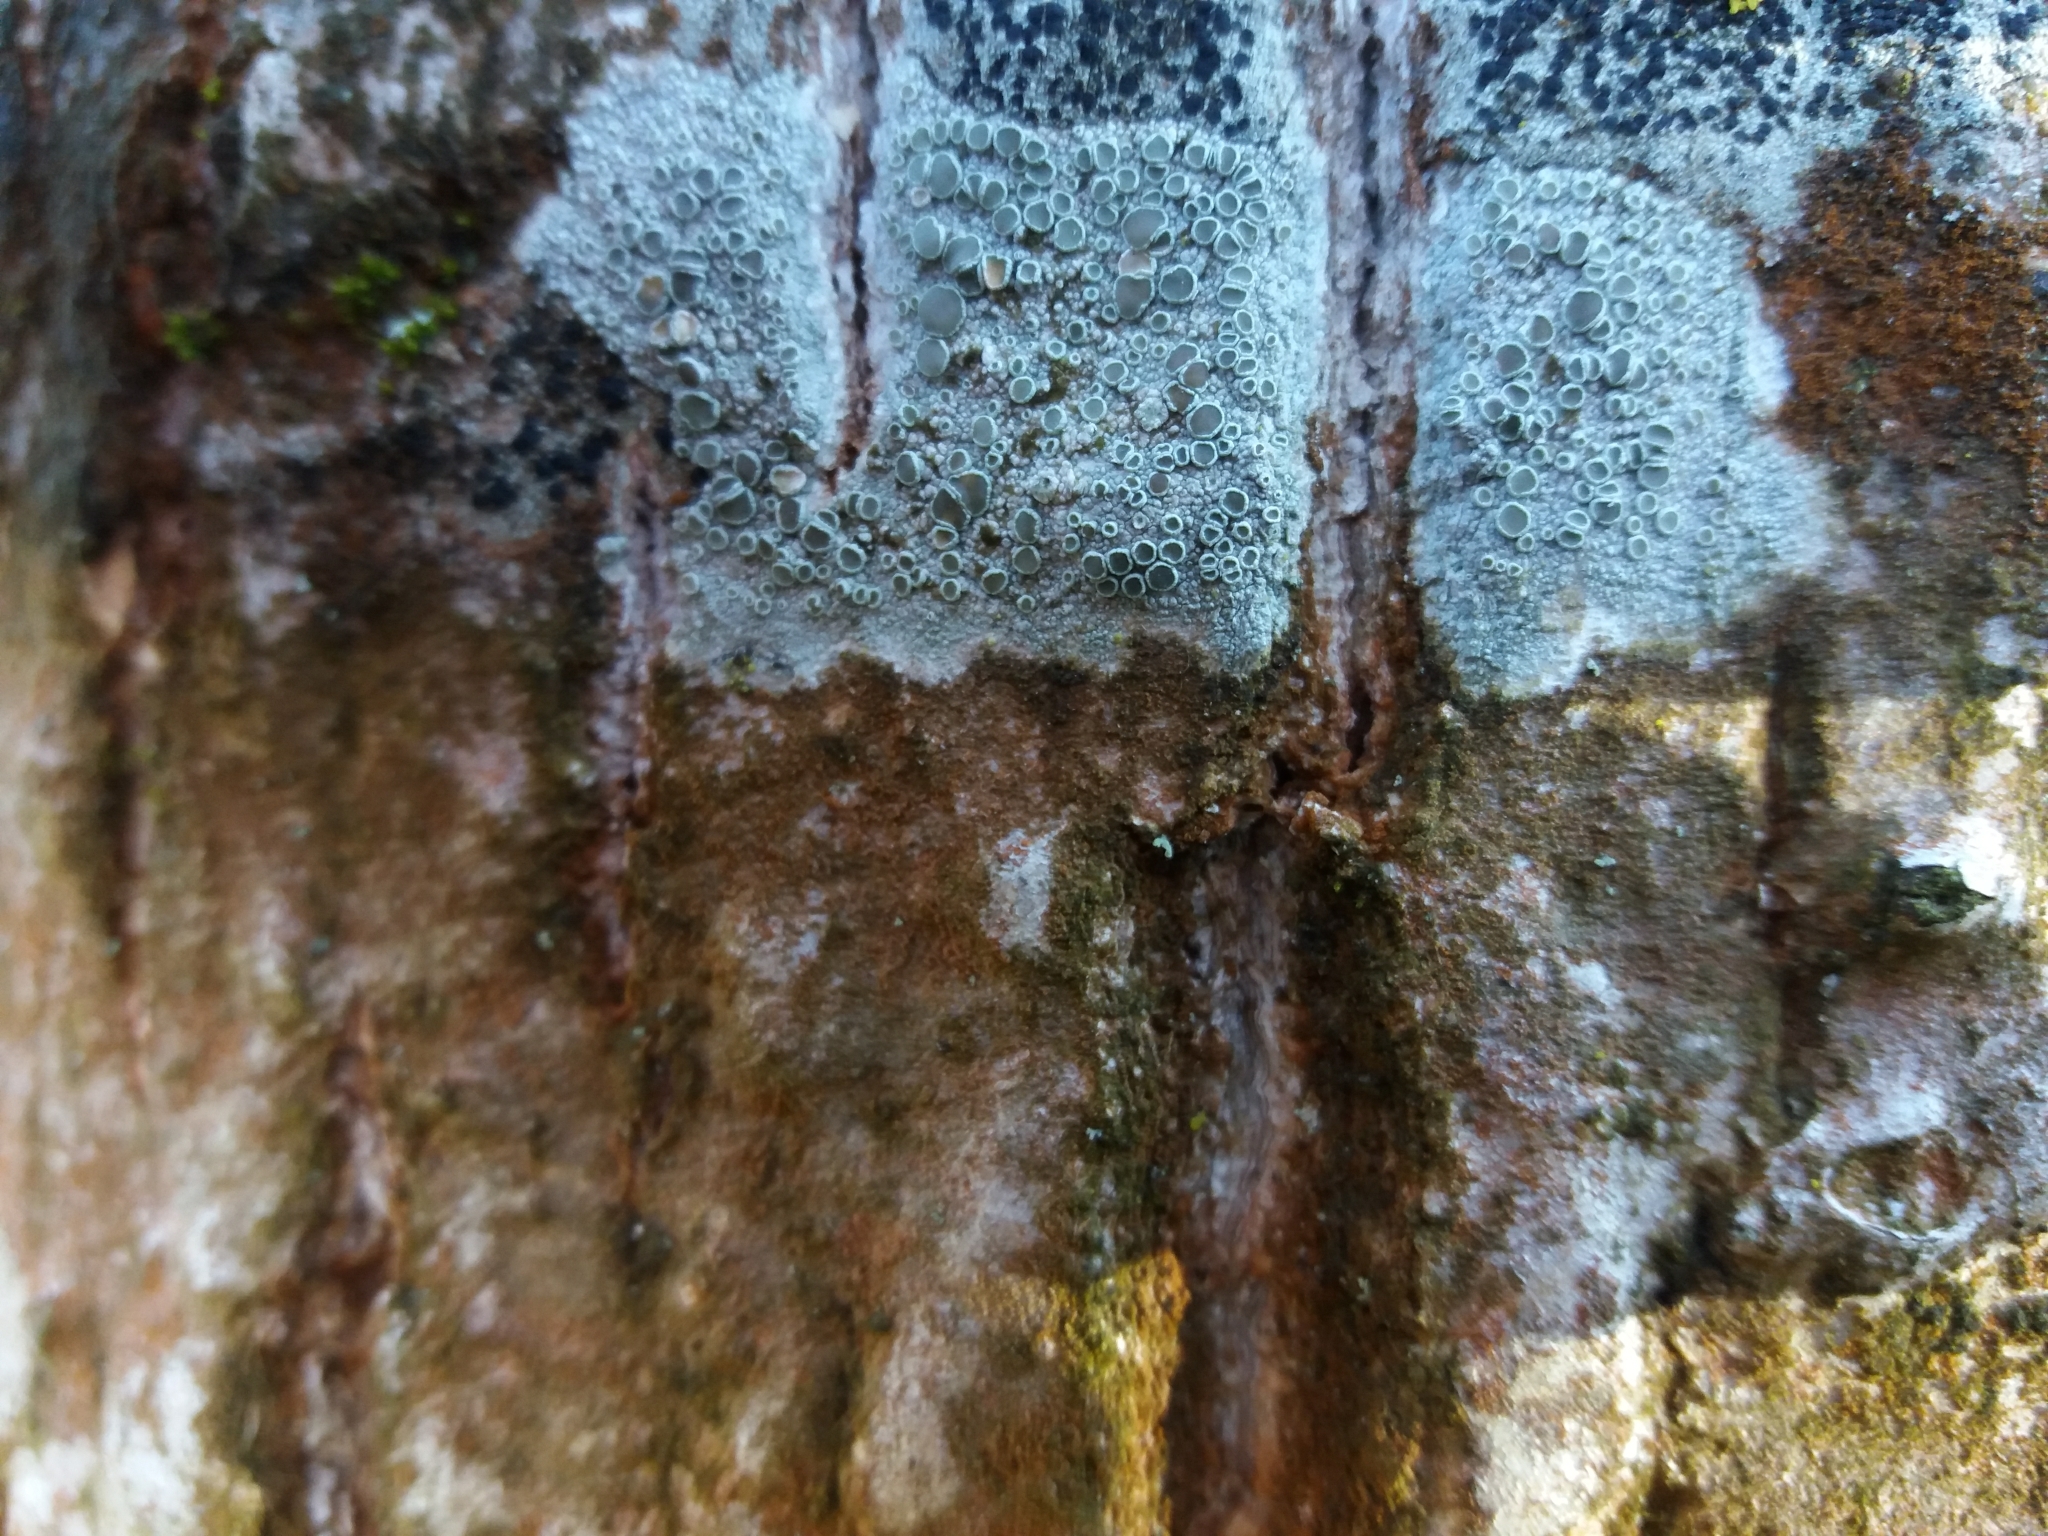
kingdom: Fungi
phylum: Ascomycota
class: Lecanoromycetes
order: Lecanorales
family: Lecanoraceae
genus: Lecanora
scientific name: Lecanora
